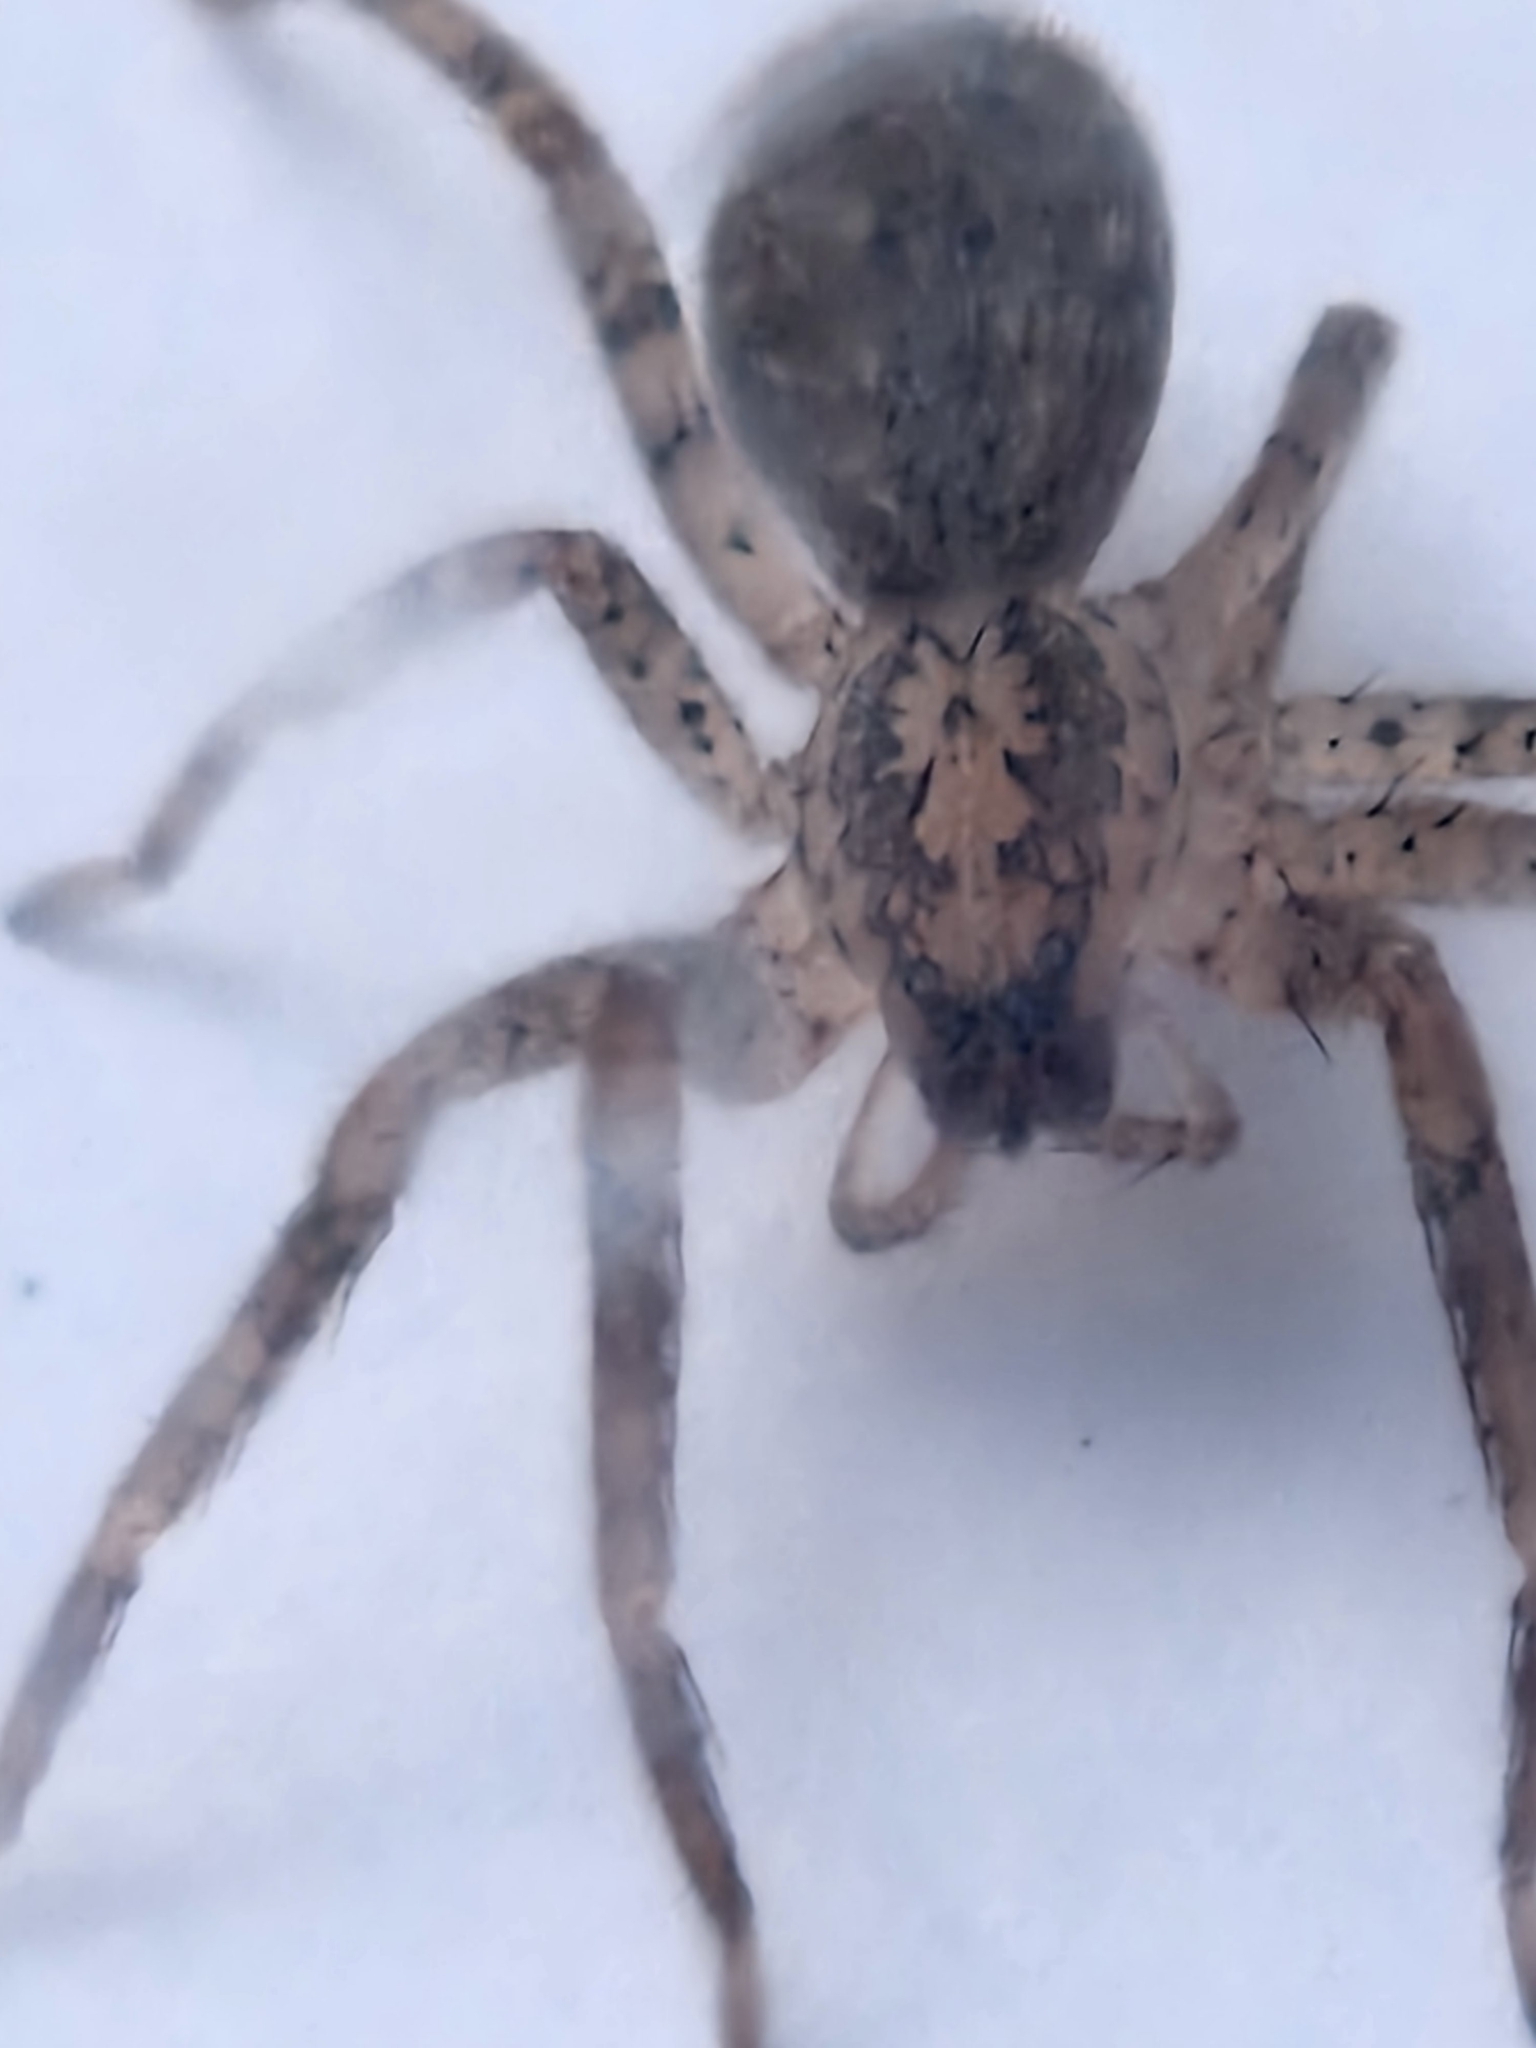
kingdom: Animalia
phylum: Arthropoda
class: Arachnida
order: Araneae
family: Zoropsidae
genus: Zoropsis
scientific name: Zoropsis spinimana
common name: Zoropsid spider
